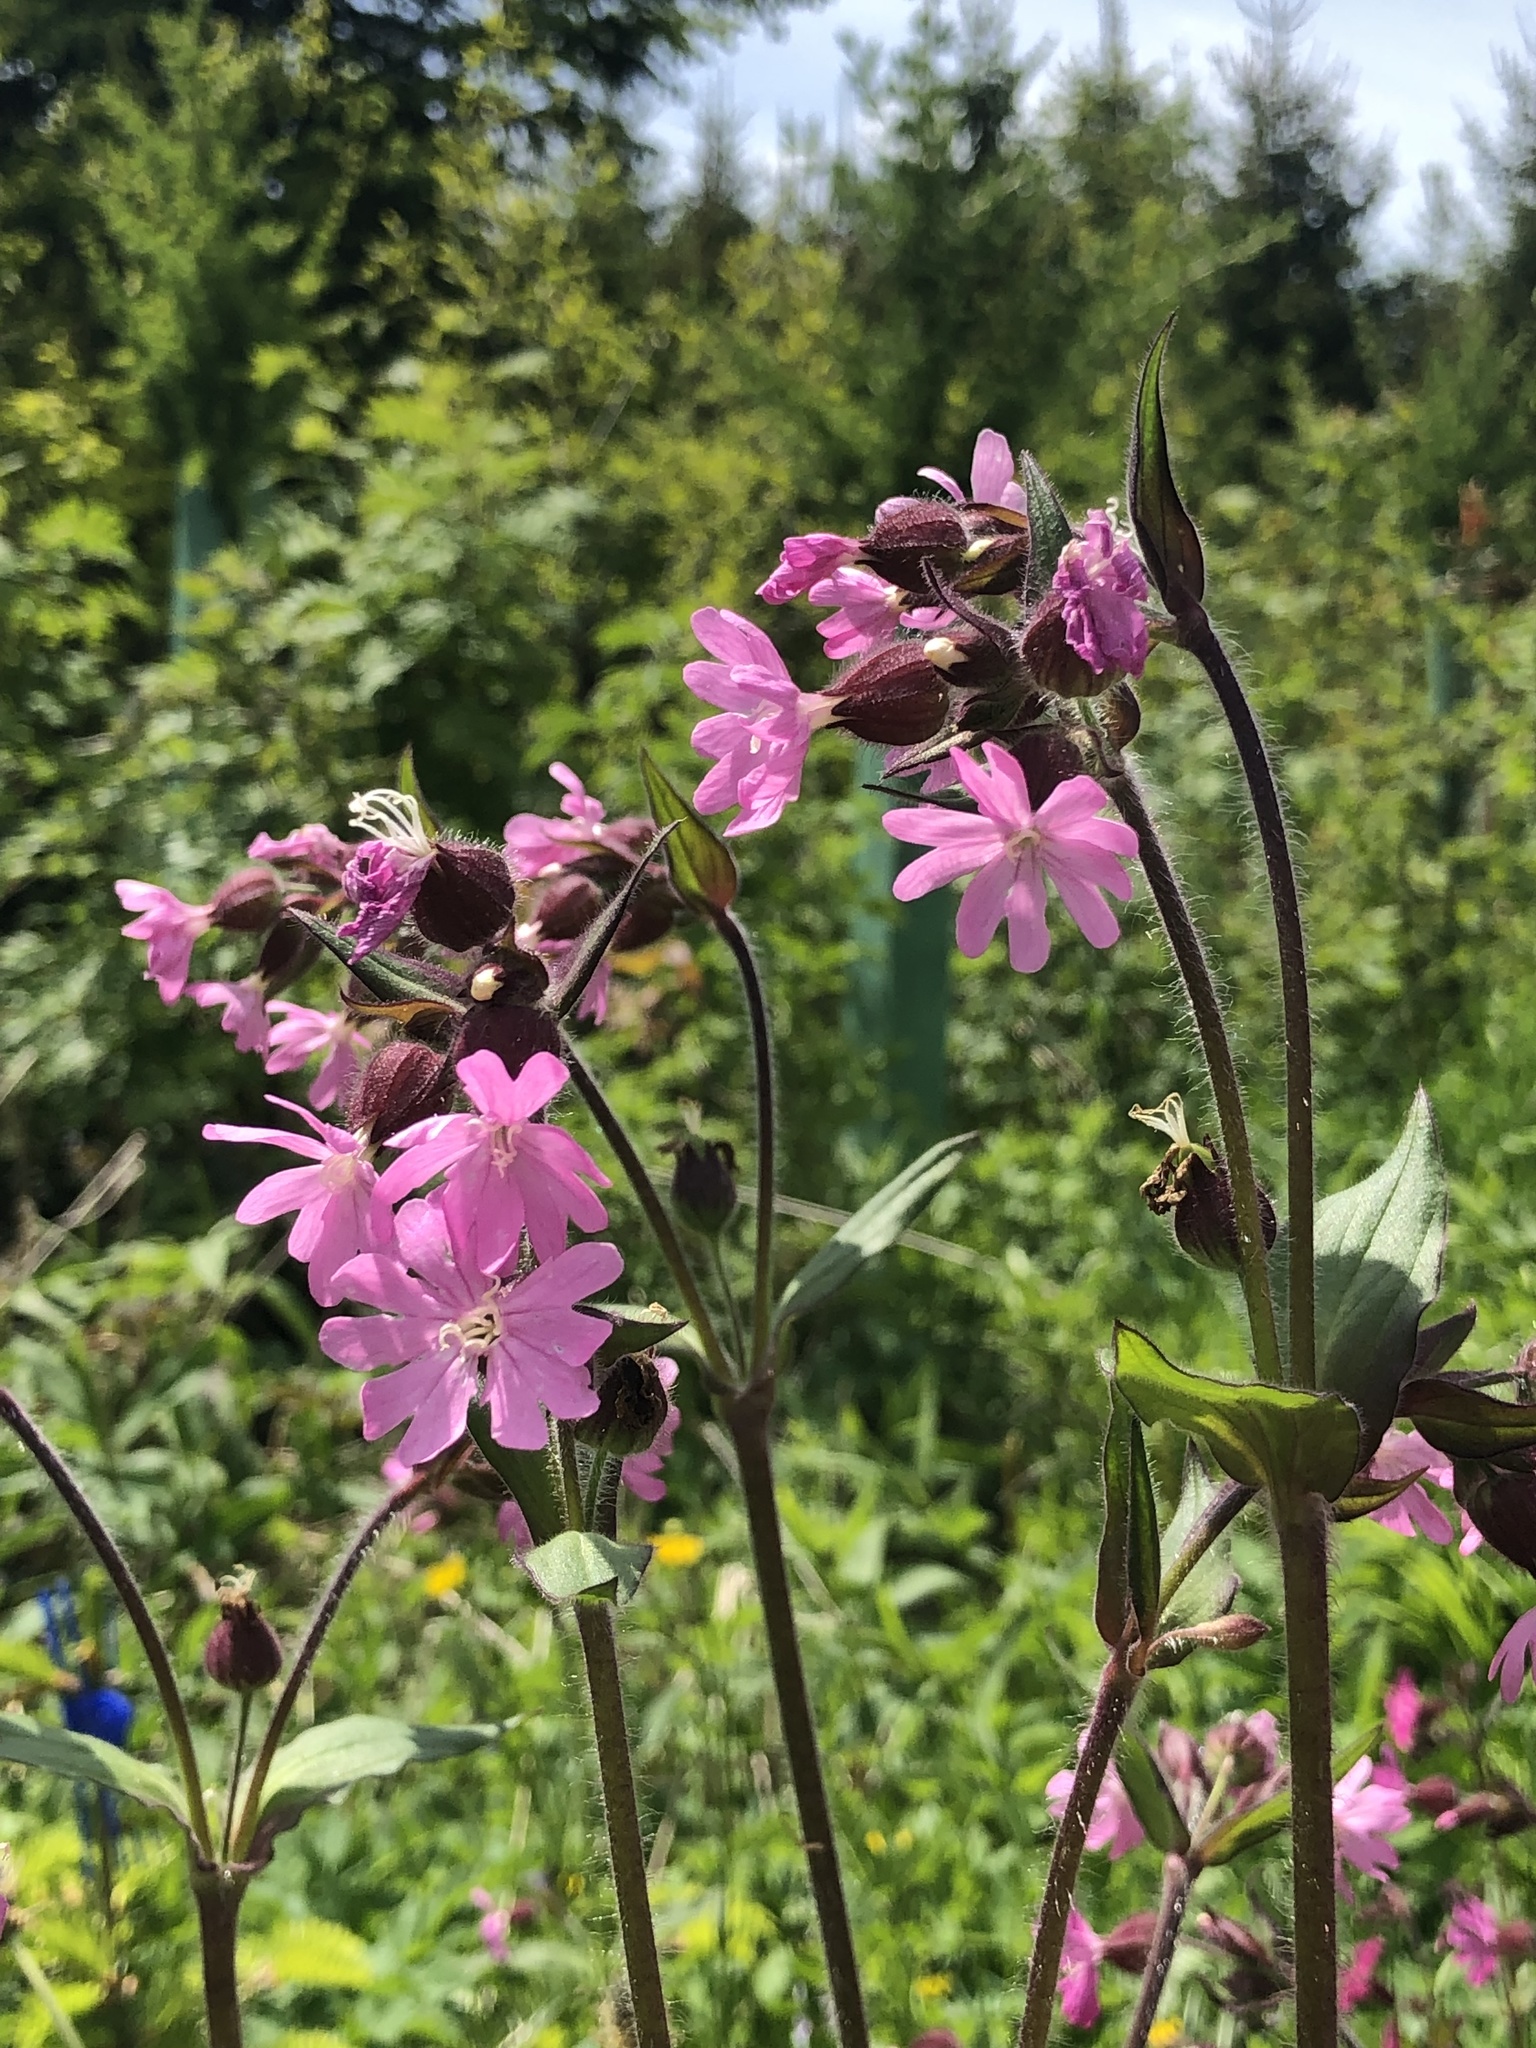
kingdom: Plantae
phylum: Tracheophyta
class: Magnoliopsida
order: Caryophyllales
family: Caryophyllaceae
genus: Silene
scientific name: Silene dioica
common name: Red campion
